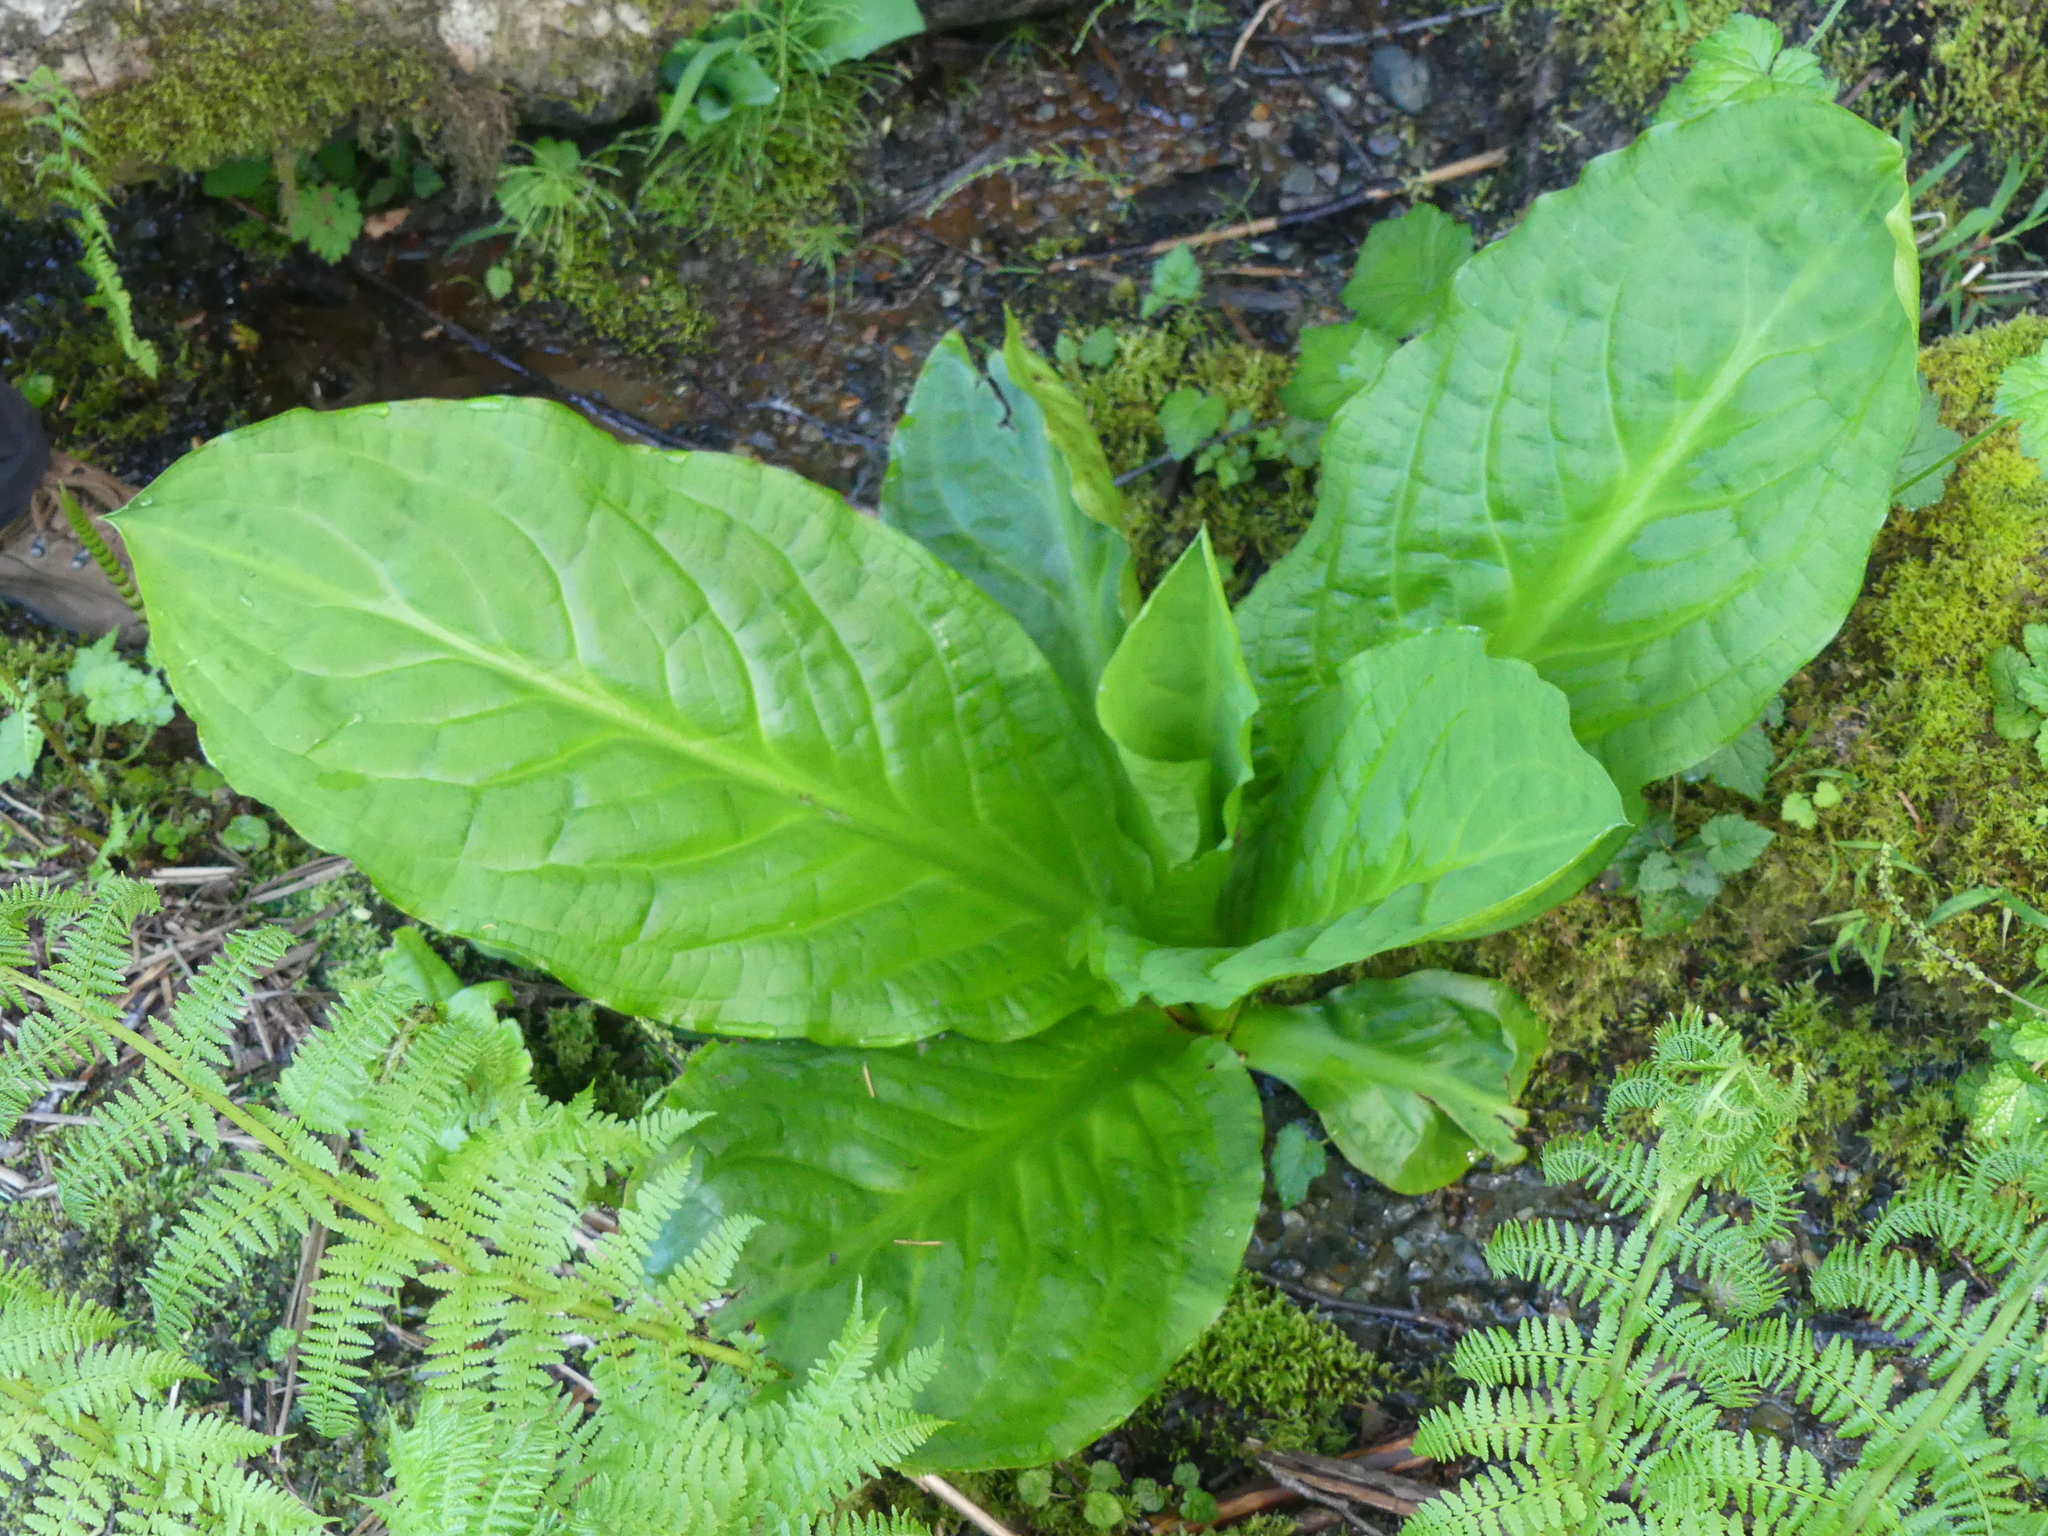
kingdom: Plantae
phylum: Tracheophyta
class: Liliopsida
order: Alismatales
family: Araceae
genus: Lysichiton
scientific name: Lysichiton americanus
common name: American skunk cabbage
